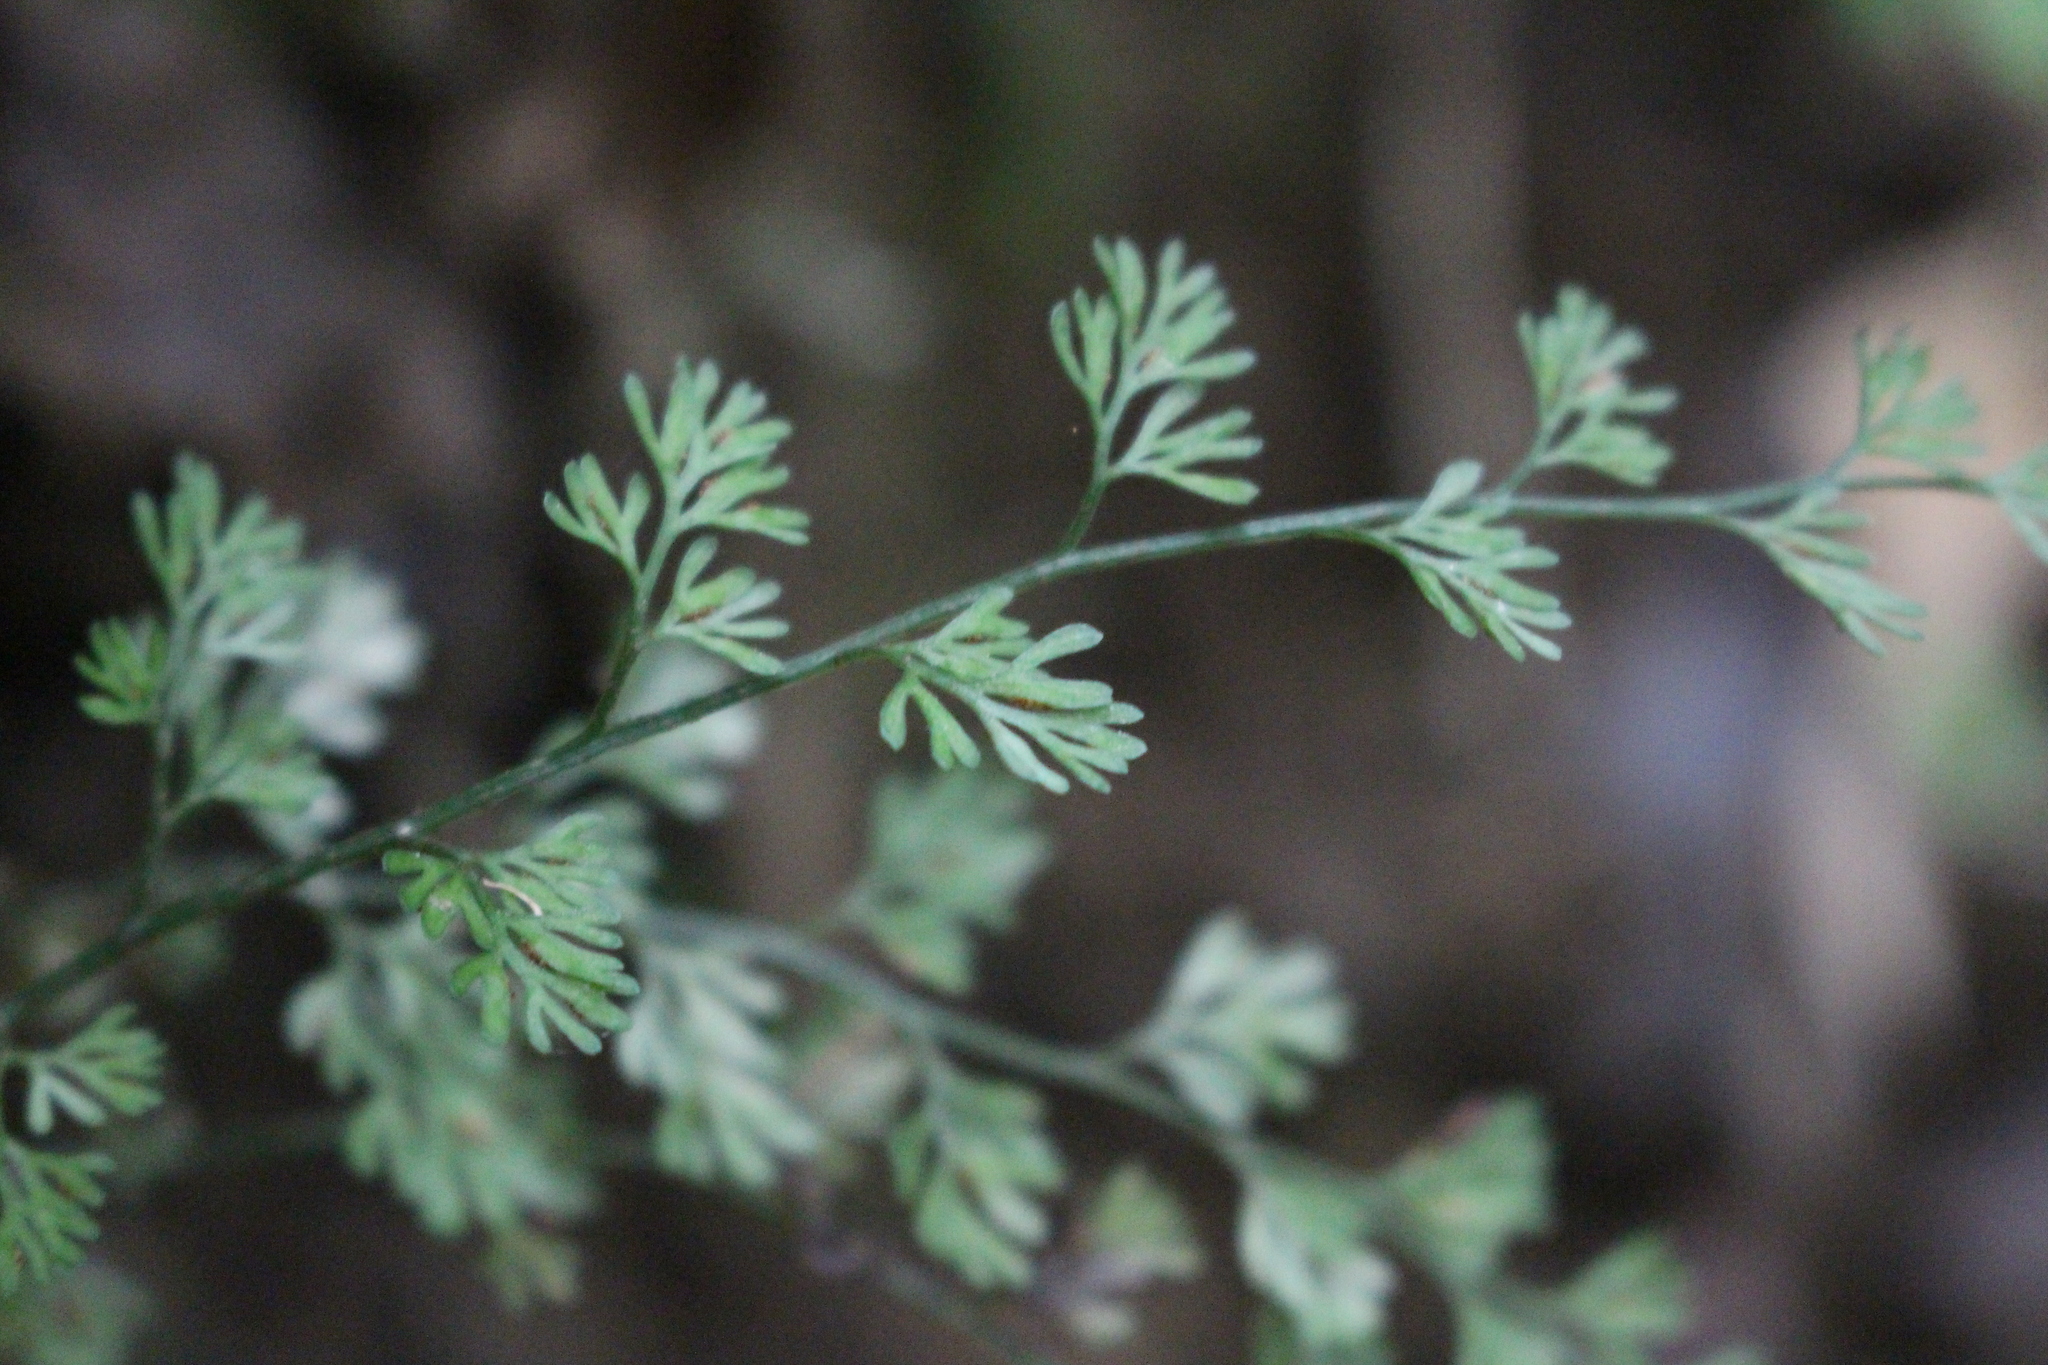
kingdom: Plantae
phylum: Tracheophyta
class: Polypodiopsida
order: Polypodiales
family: Aspleniaceae
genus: Asplenium
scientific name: Asplenium hookerianum
